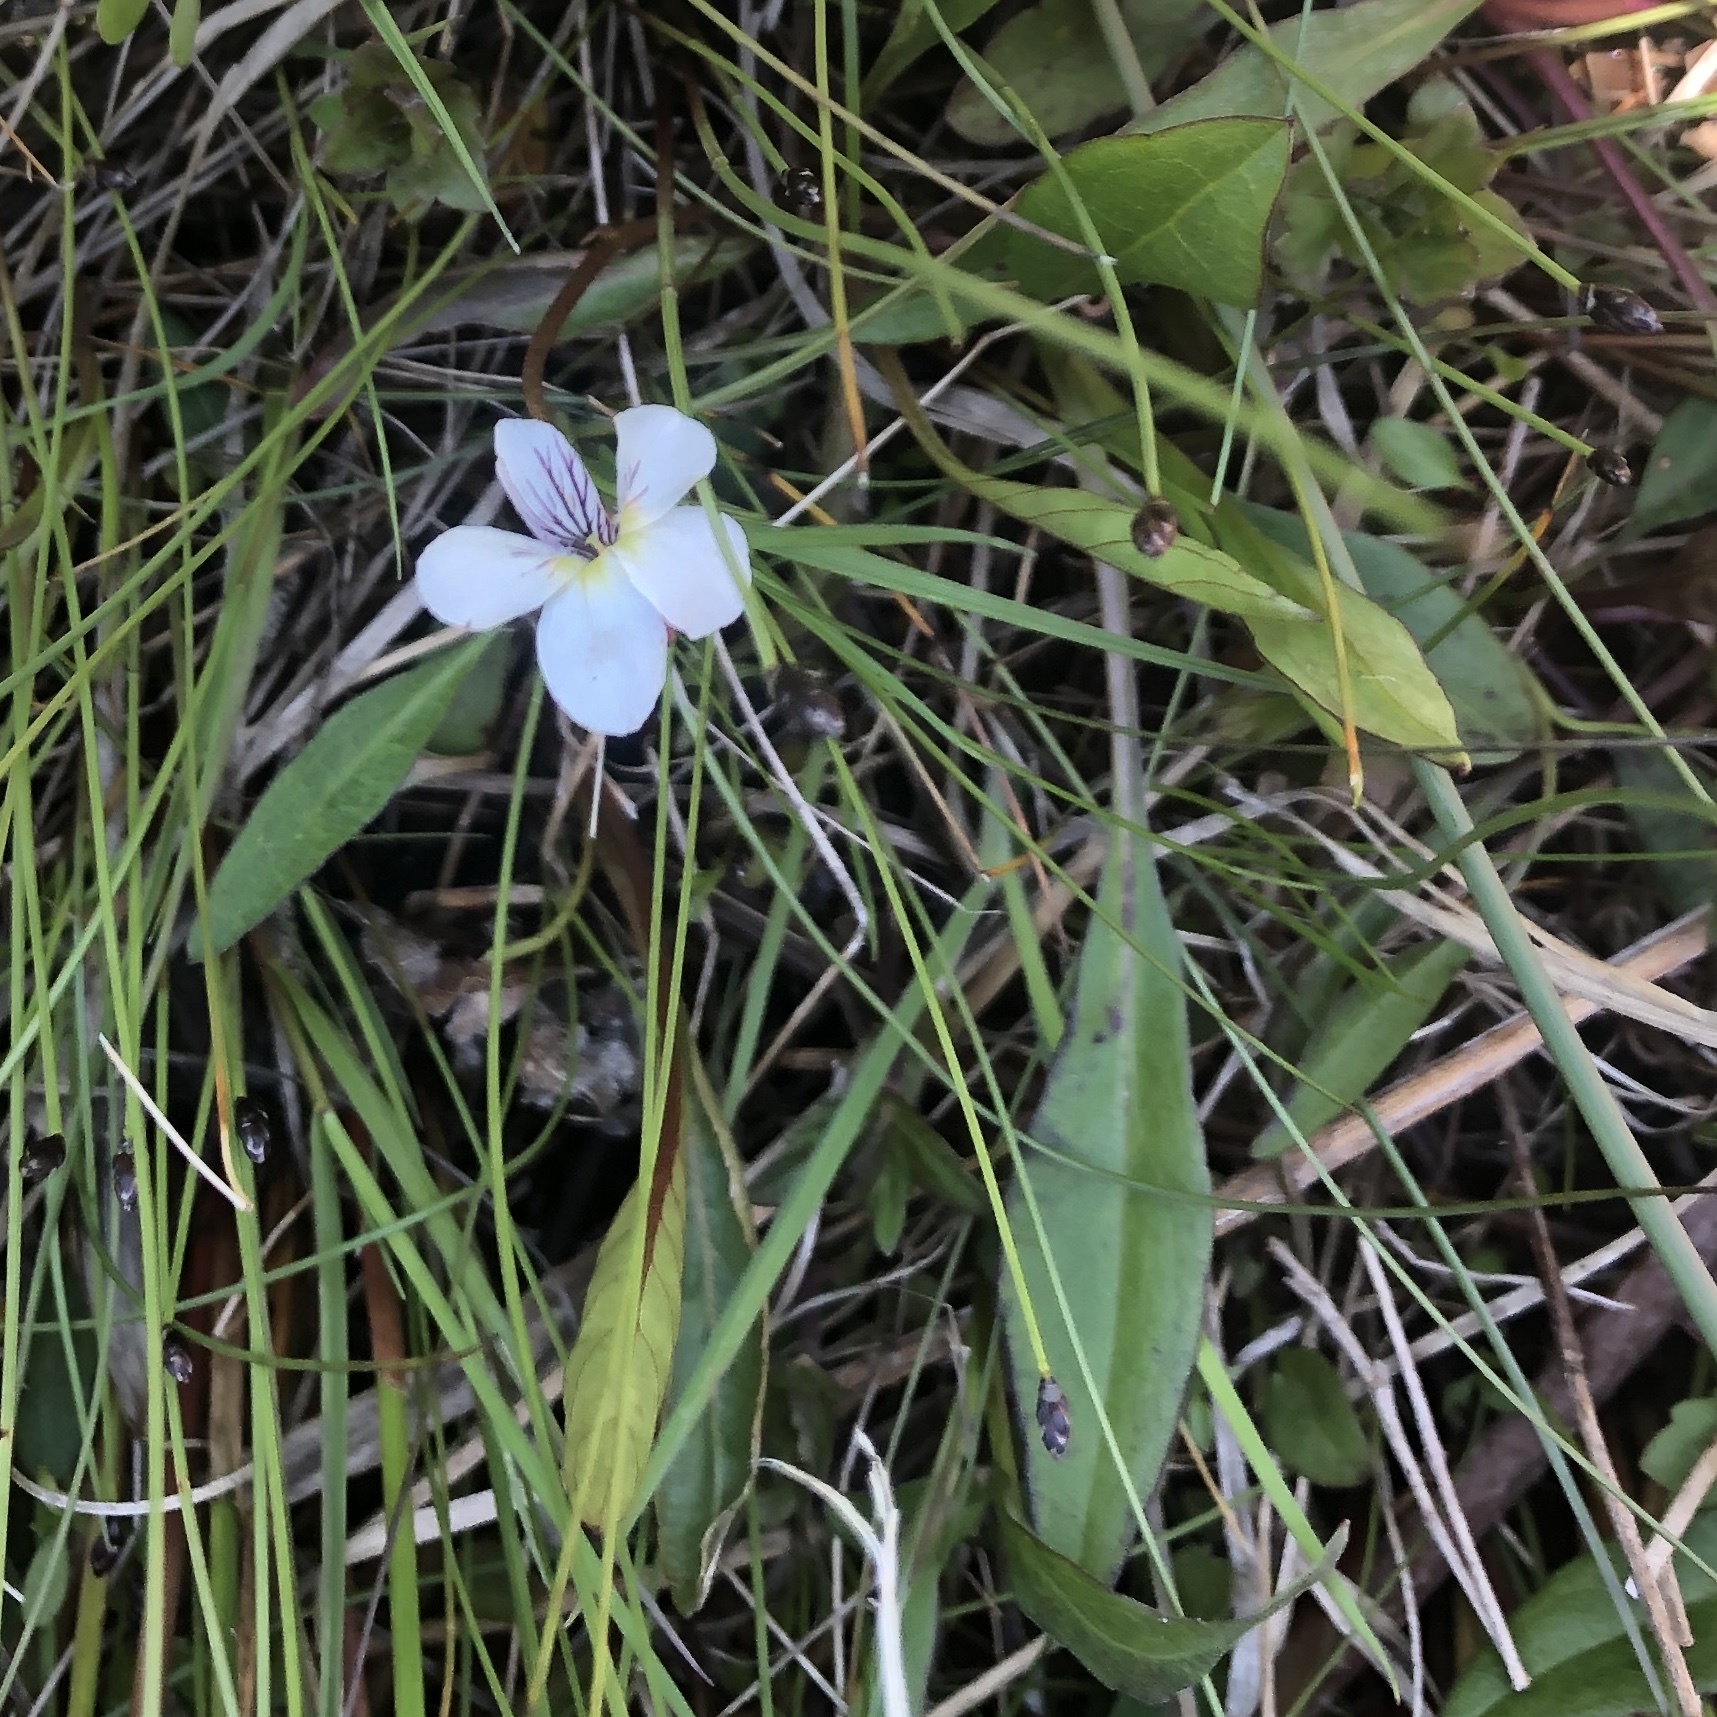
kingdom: Plantae
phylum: Tracheophyta
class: Magnoliopsida
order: Malpighiales
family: Violaceae
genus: Viola
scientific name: Viola lanceolata
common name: Bog white violet
